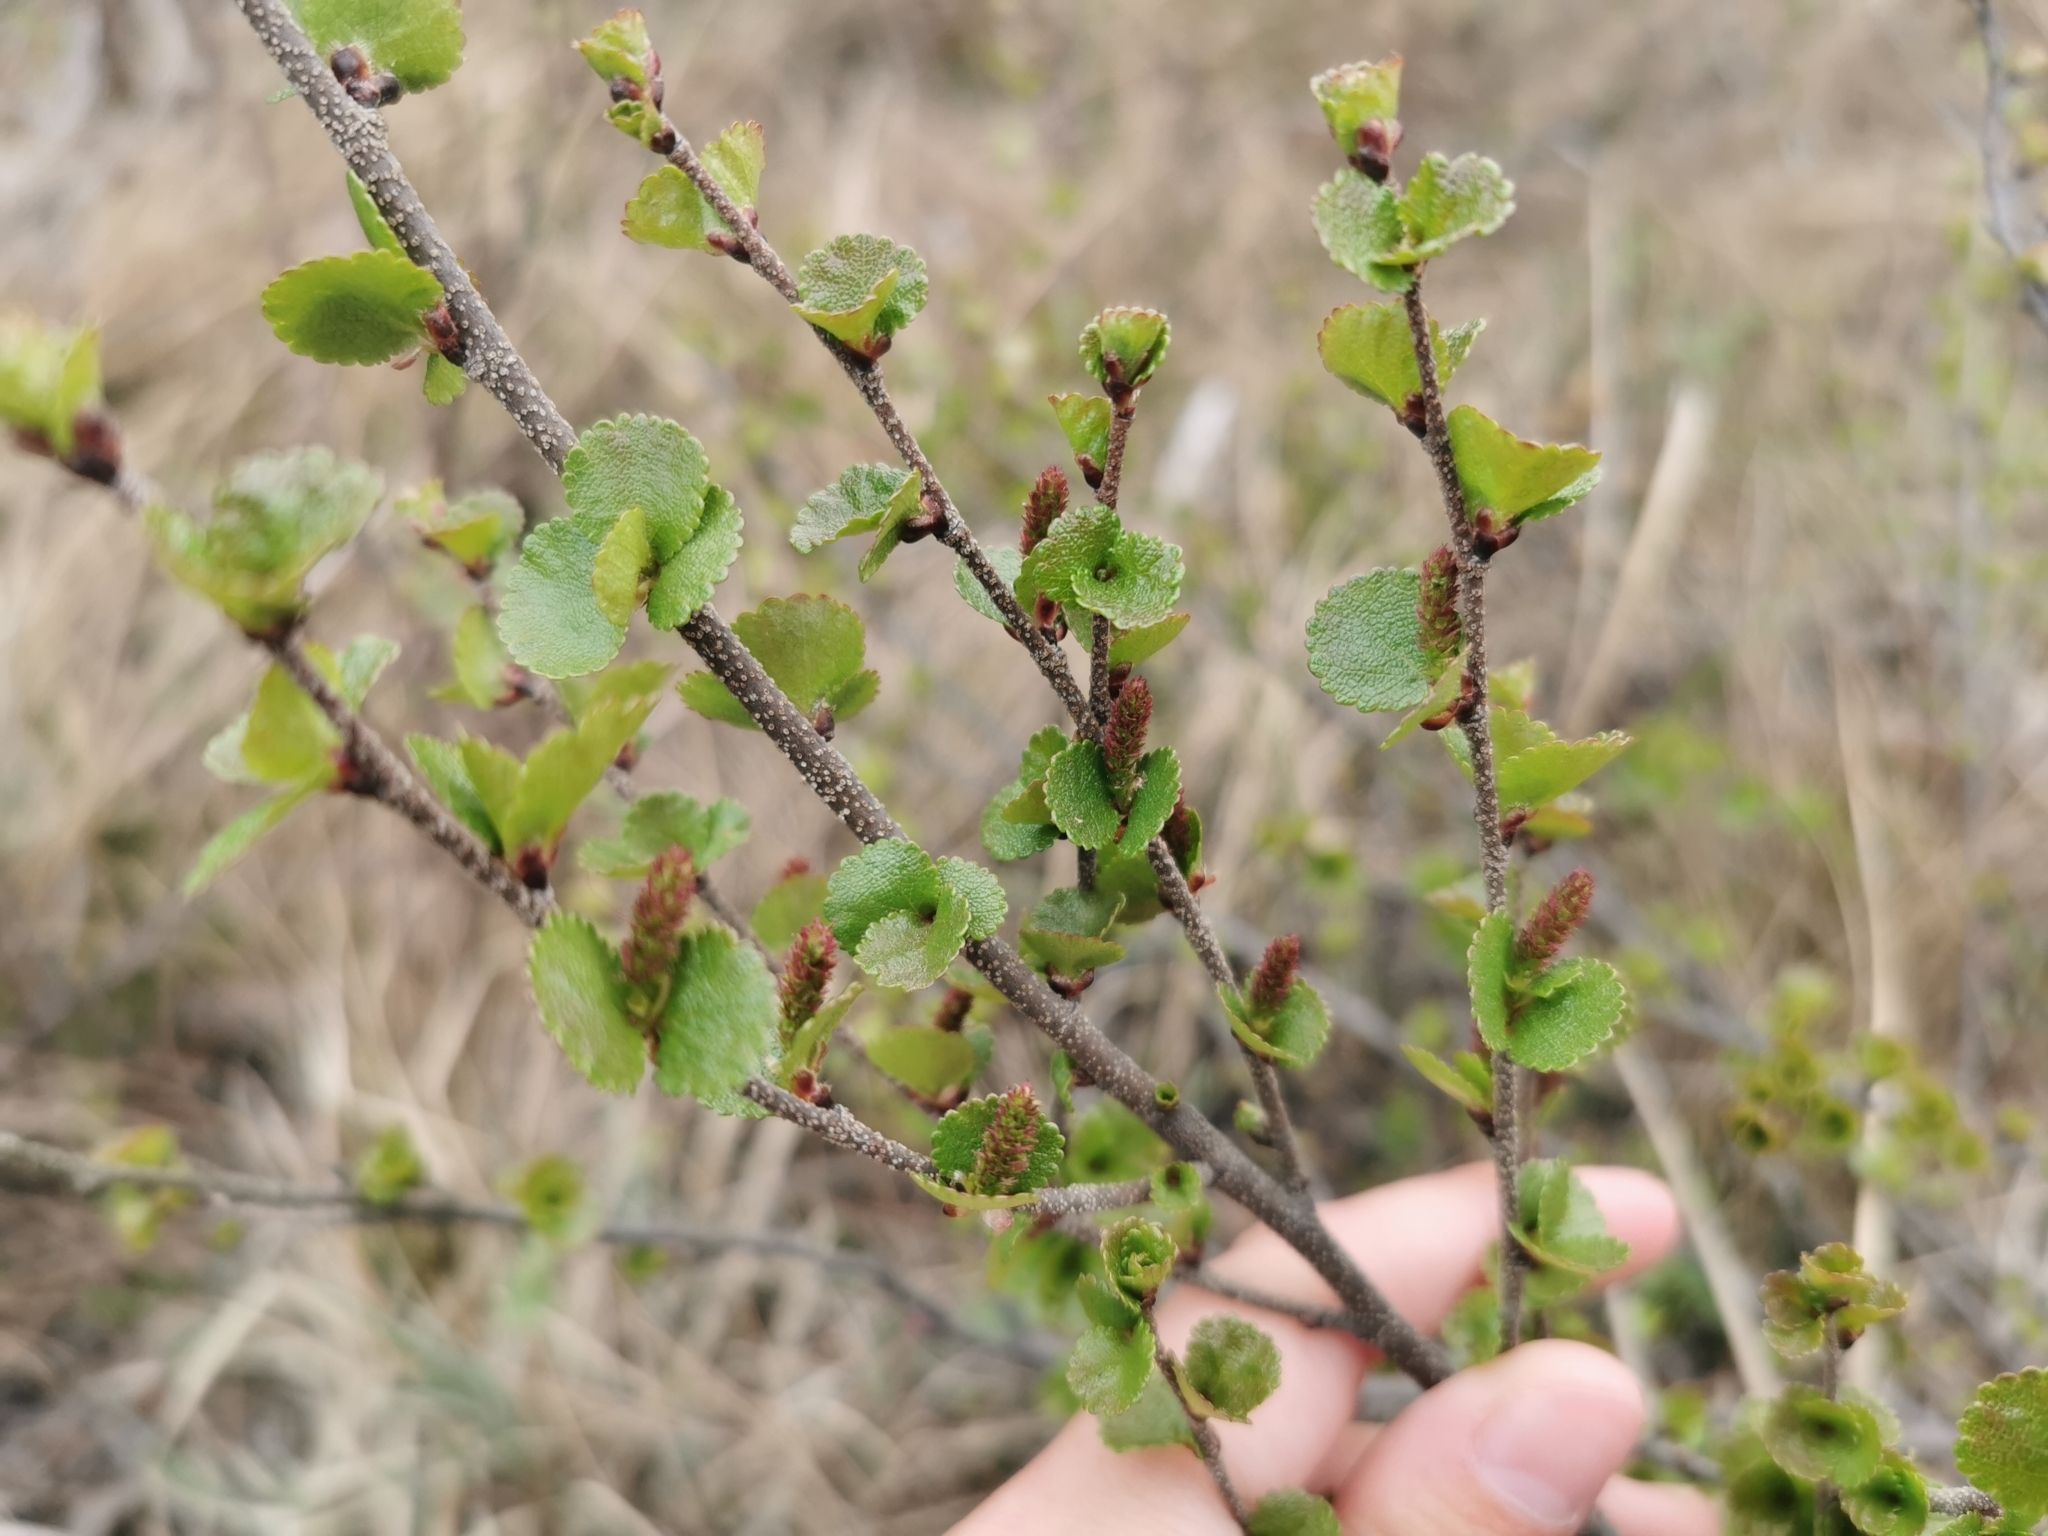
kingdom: Plantae
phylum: Tracheophyta
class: Magnoliopsida
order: Fagales
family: Betulaceae
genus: Betula
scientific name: Betula glandulosa
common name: Dwarf birch
